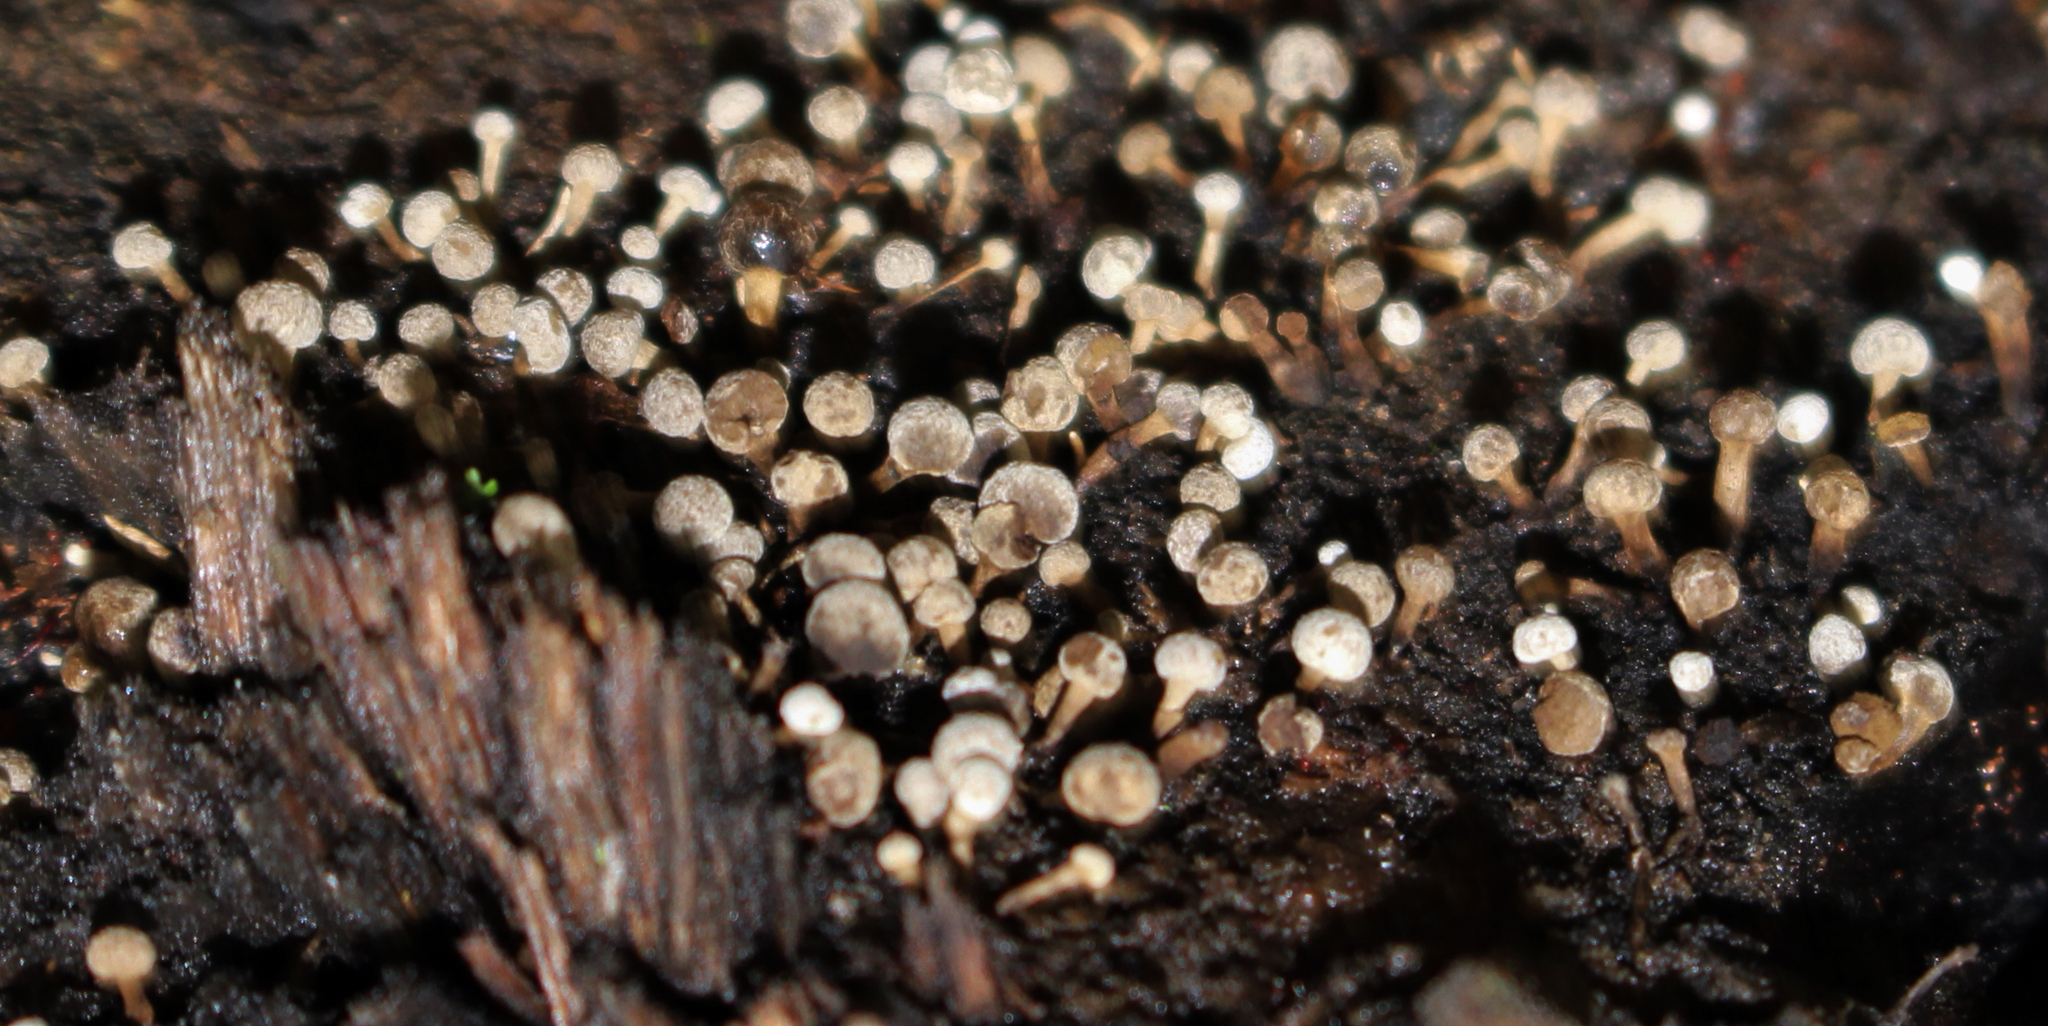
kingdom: Fungi
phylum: Basidiomycota
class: Atractiellomycetes
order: Atractiellales
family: Phleogenaceae
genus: Phleogena
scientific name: Phleogena faginea
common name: Fenugreek stalkball
